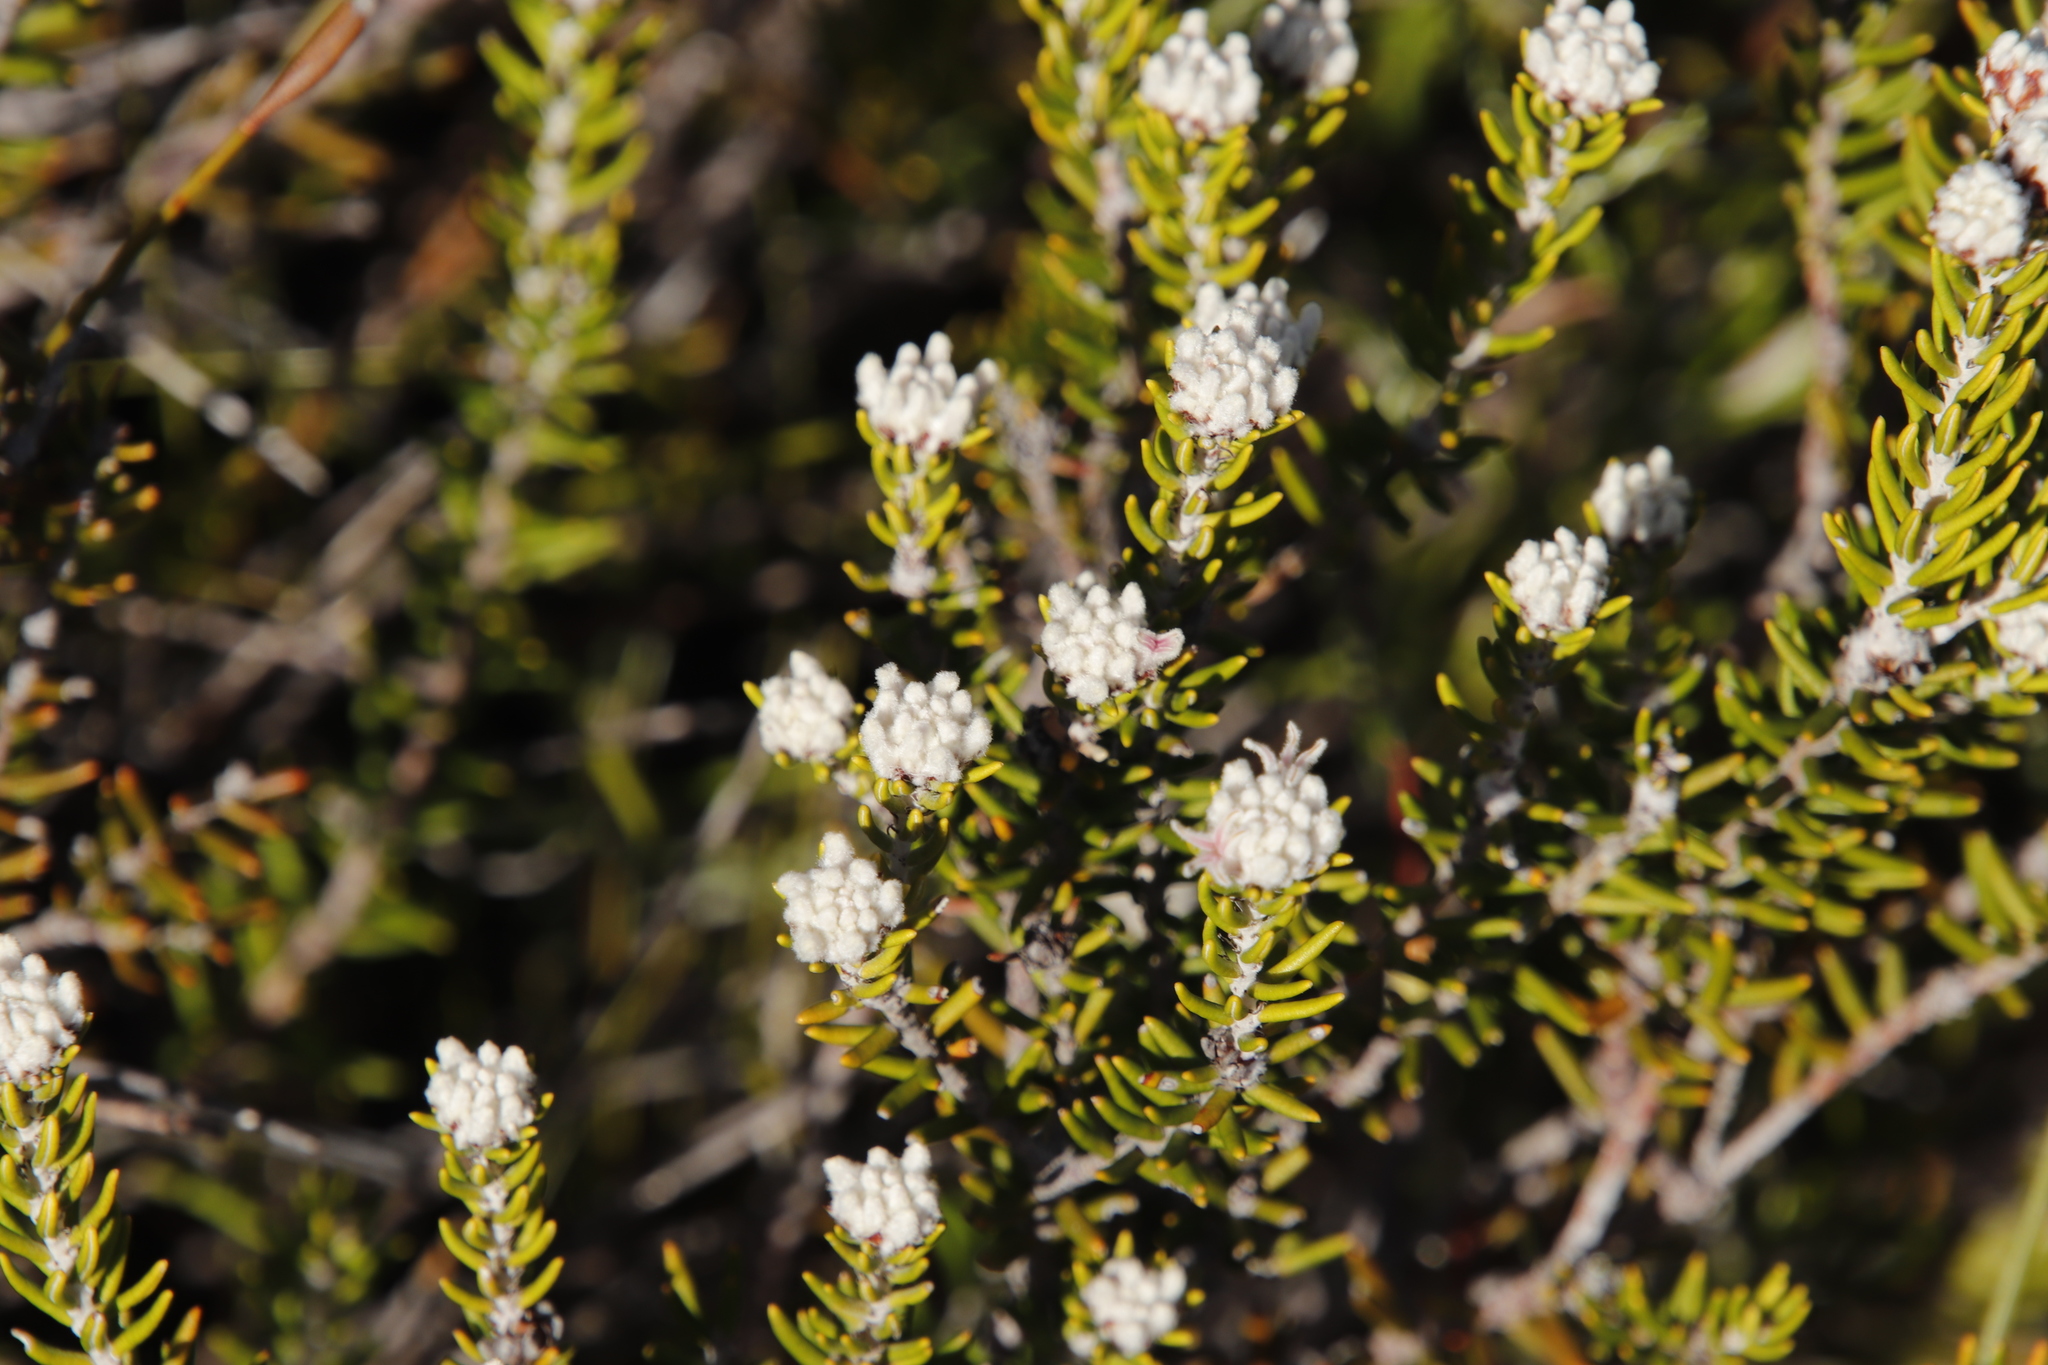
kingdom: Plantae
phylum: Tracheophyta
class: Magnoliopsida
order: Rosales
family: Rhamnaceae
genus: Trichocephalus
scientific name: Trichocephalus stipularis
